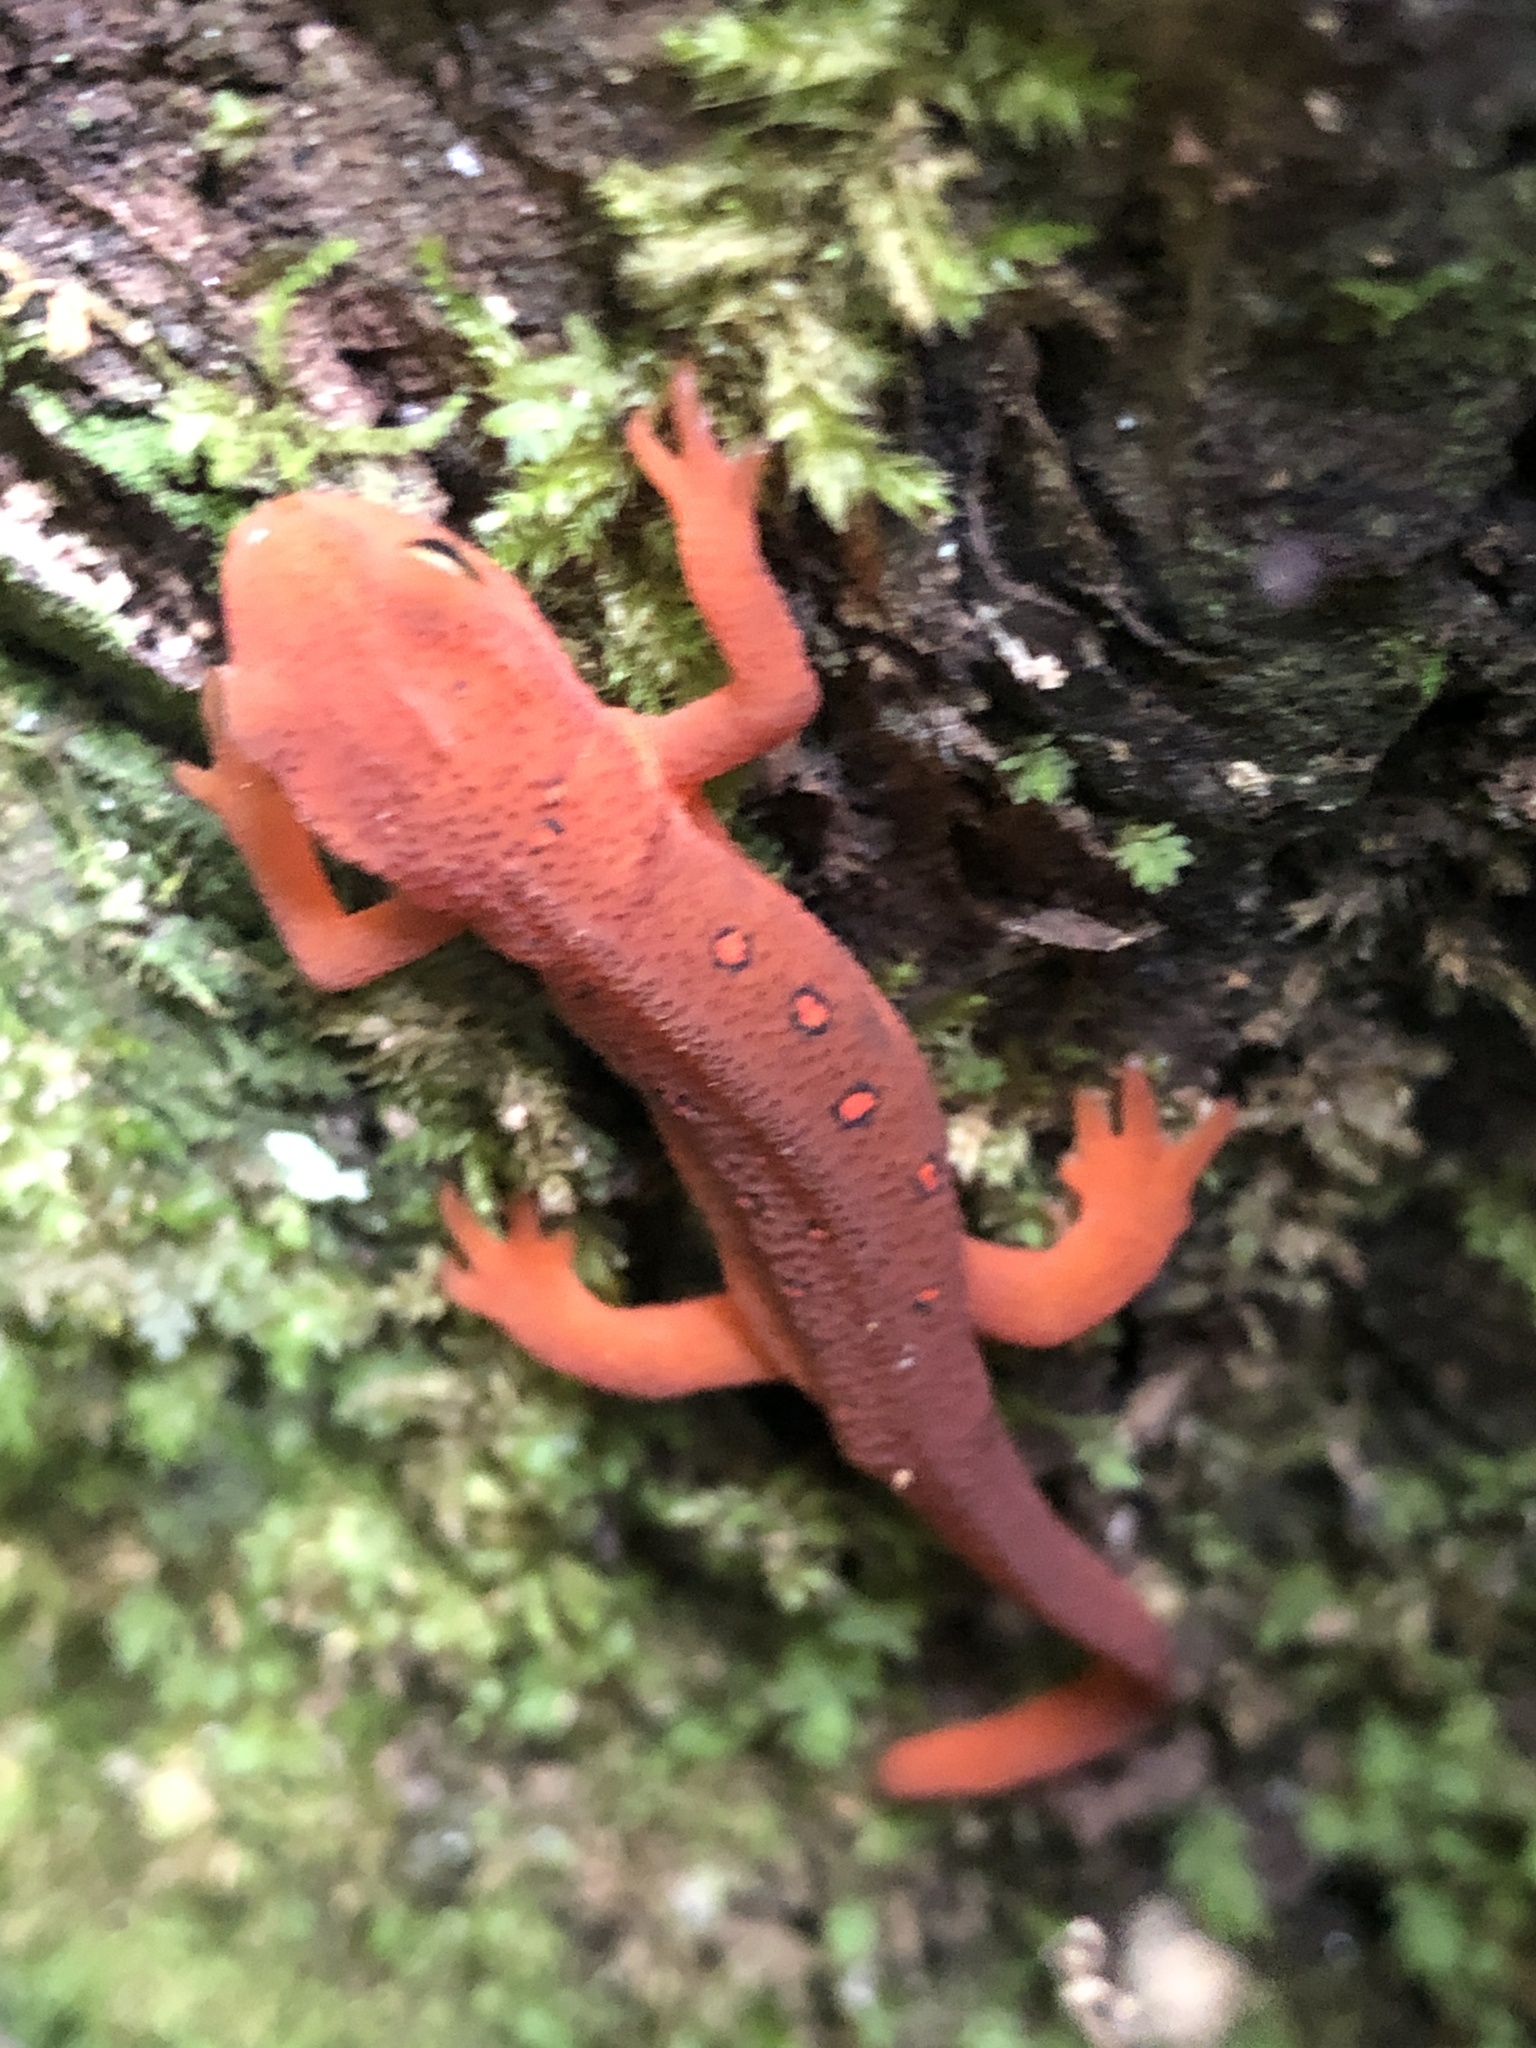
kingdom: Animalia
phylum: Chordata
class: Amphibia
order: Caudata
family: Salamandridae
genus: Notophthalmus
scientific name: Notophthalmus viridescens
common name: Eastern newt
